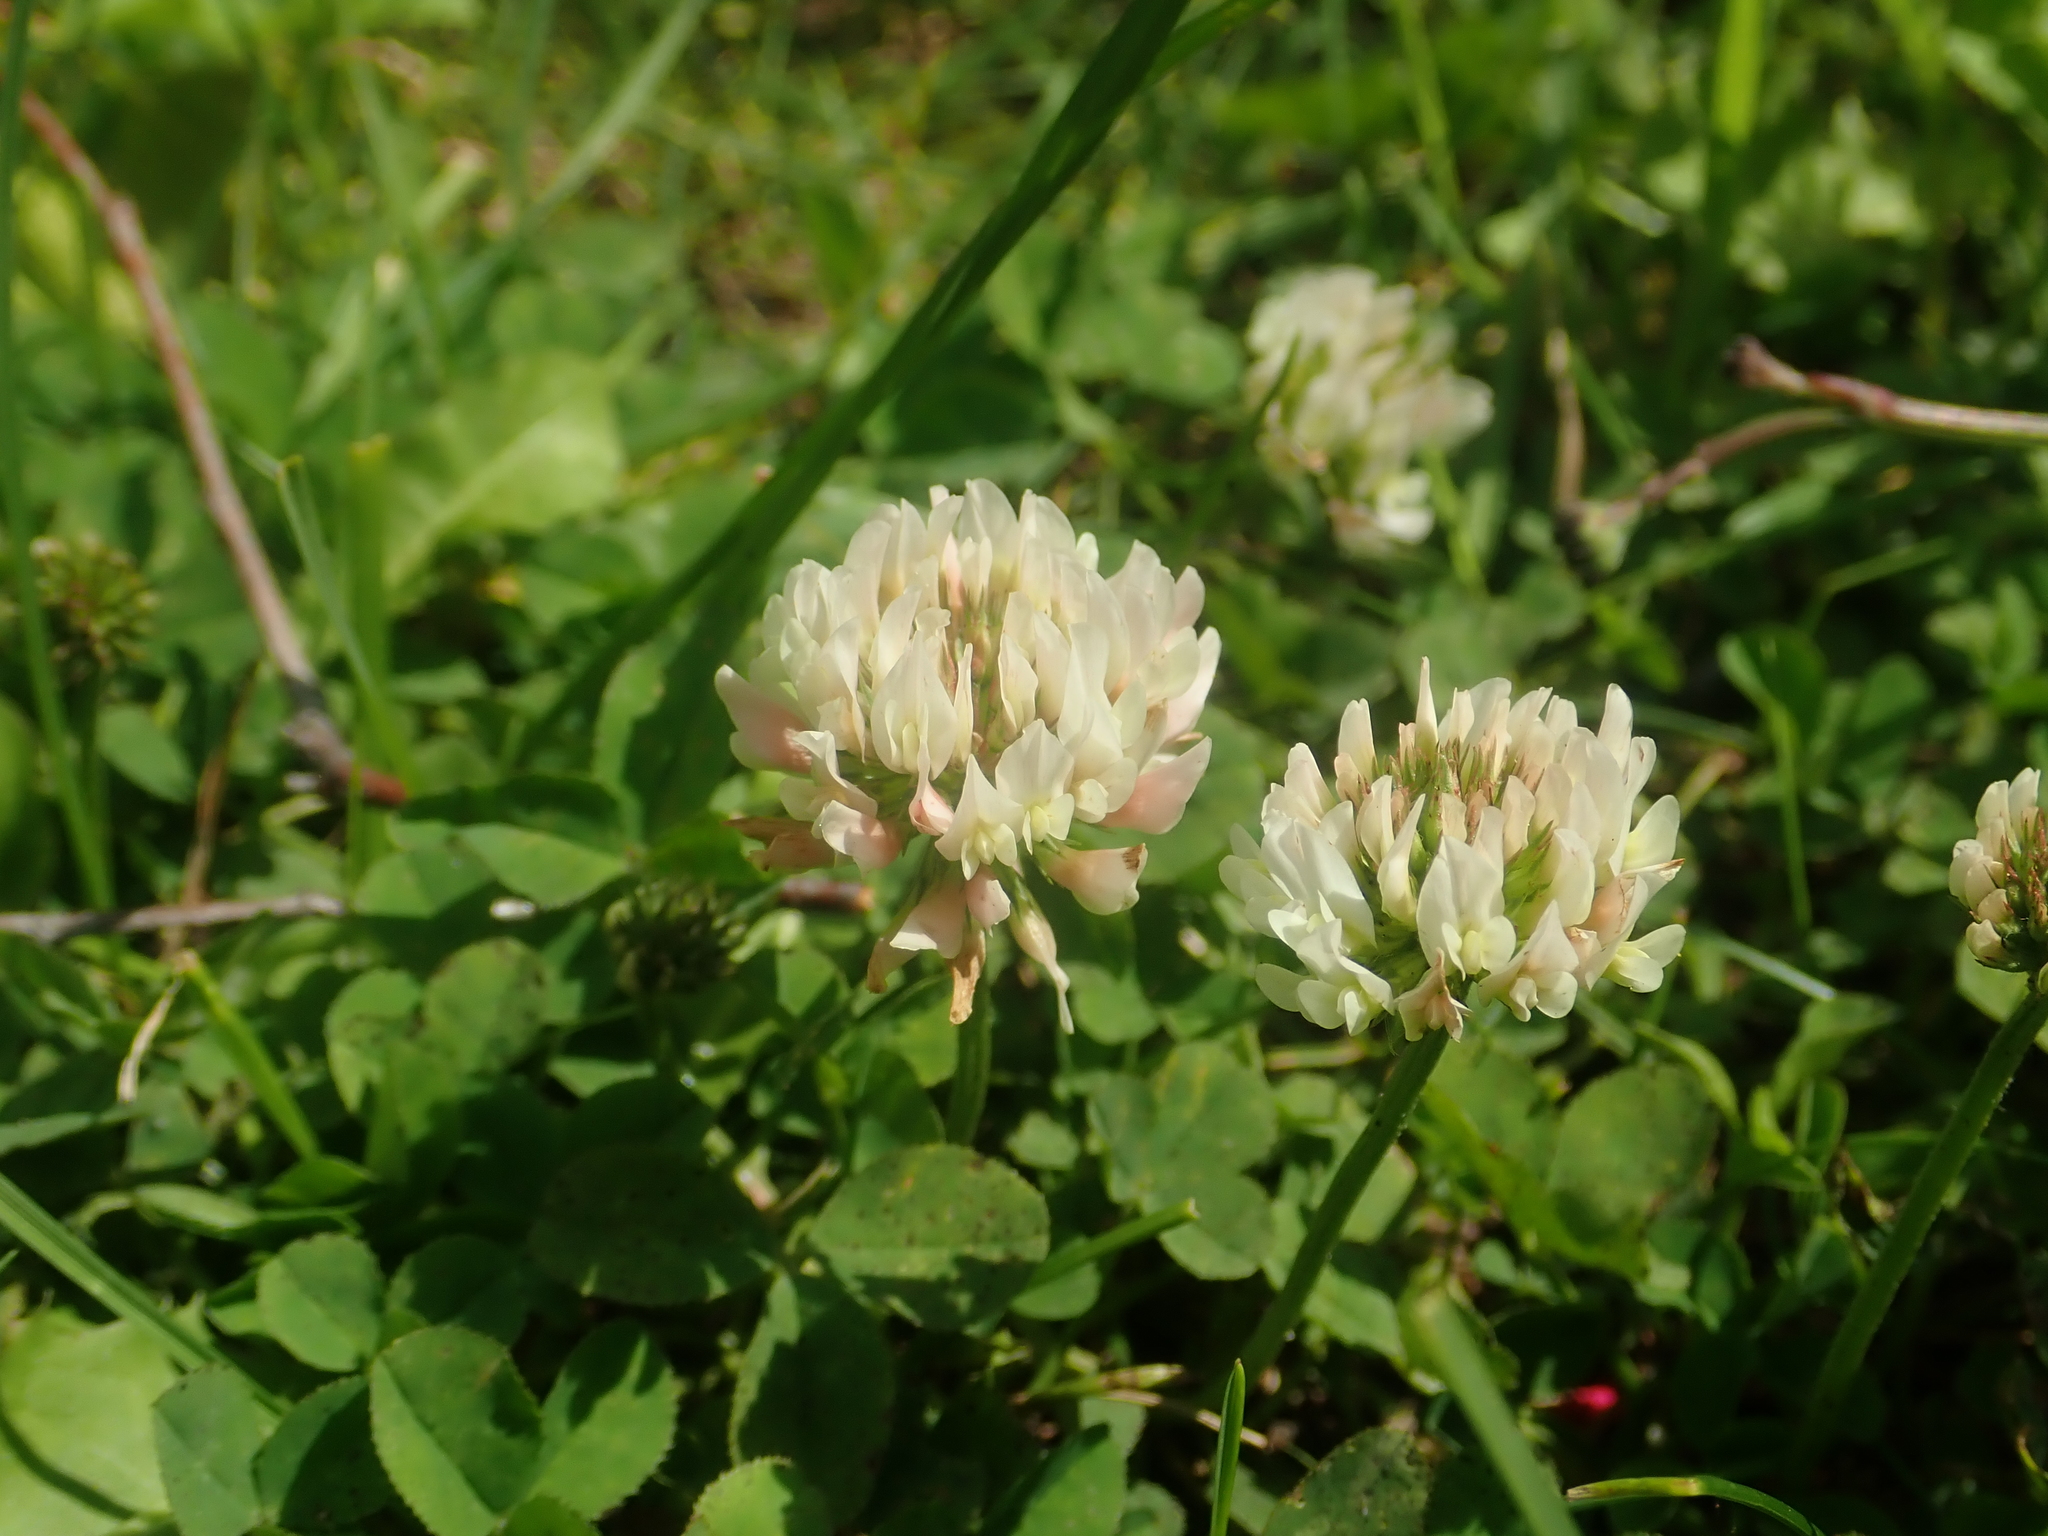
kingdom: Plantae
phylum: Tracheophyta
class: Magnoliopsida
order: Fabales
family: Fabaceae
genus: Trifolium
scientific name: Trifolium repens
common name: White clover
